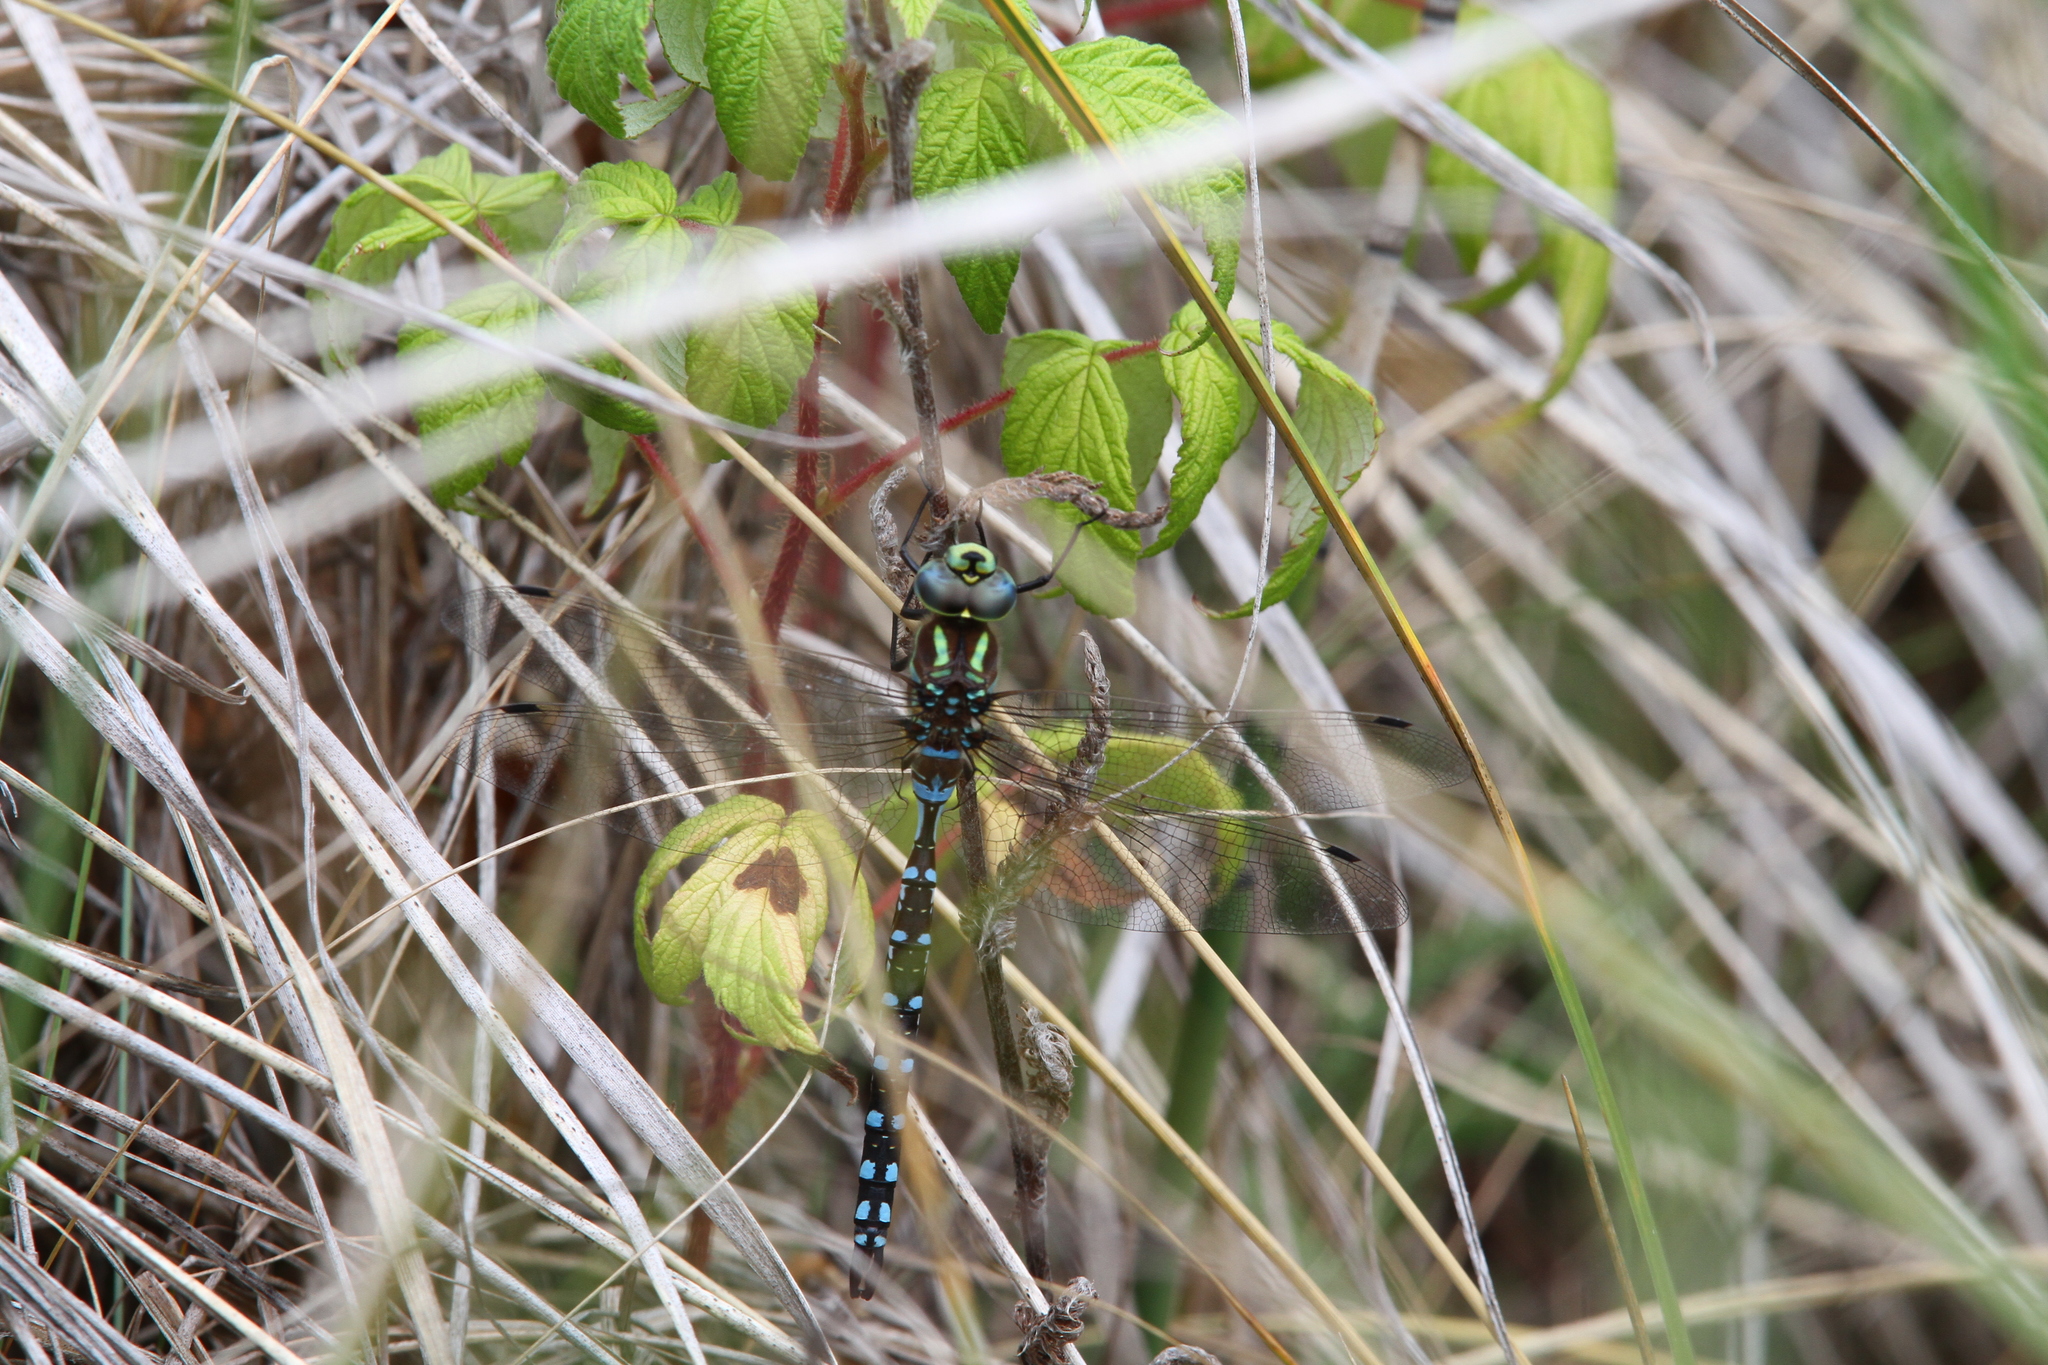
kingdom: Animalia
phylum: Arthropoda
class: Insecta
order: Odonata
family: Aeshnidae
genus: Aeshna
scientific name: Aeshna constricta
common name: Lance-tipped darner
